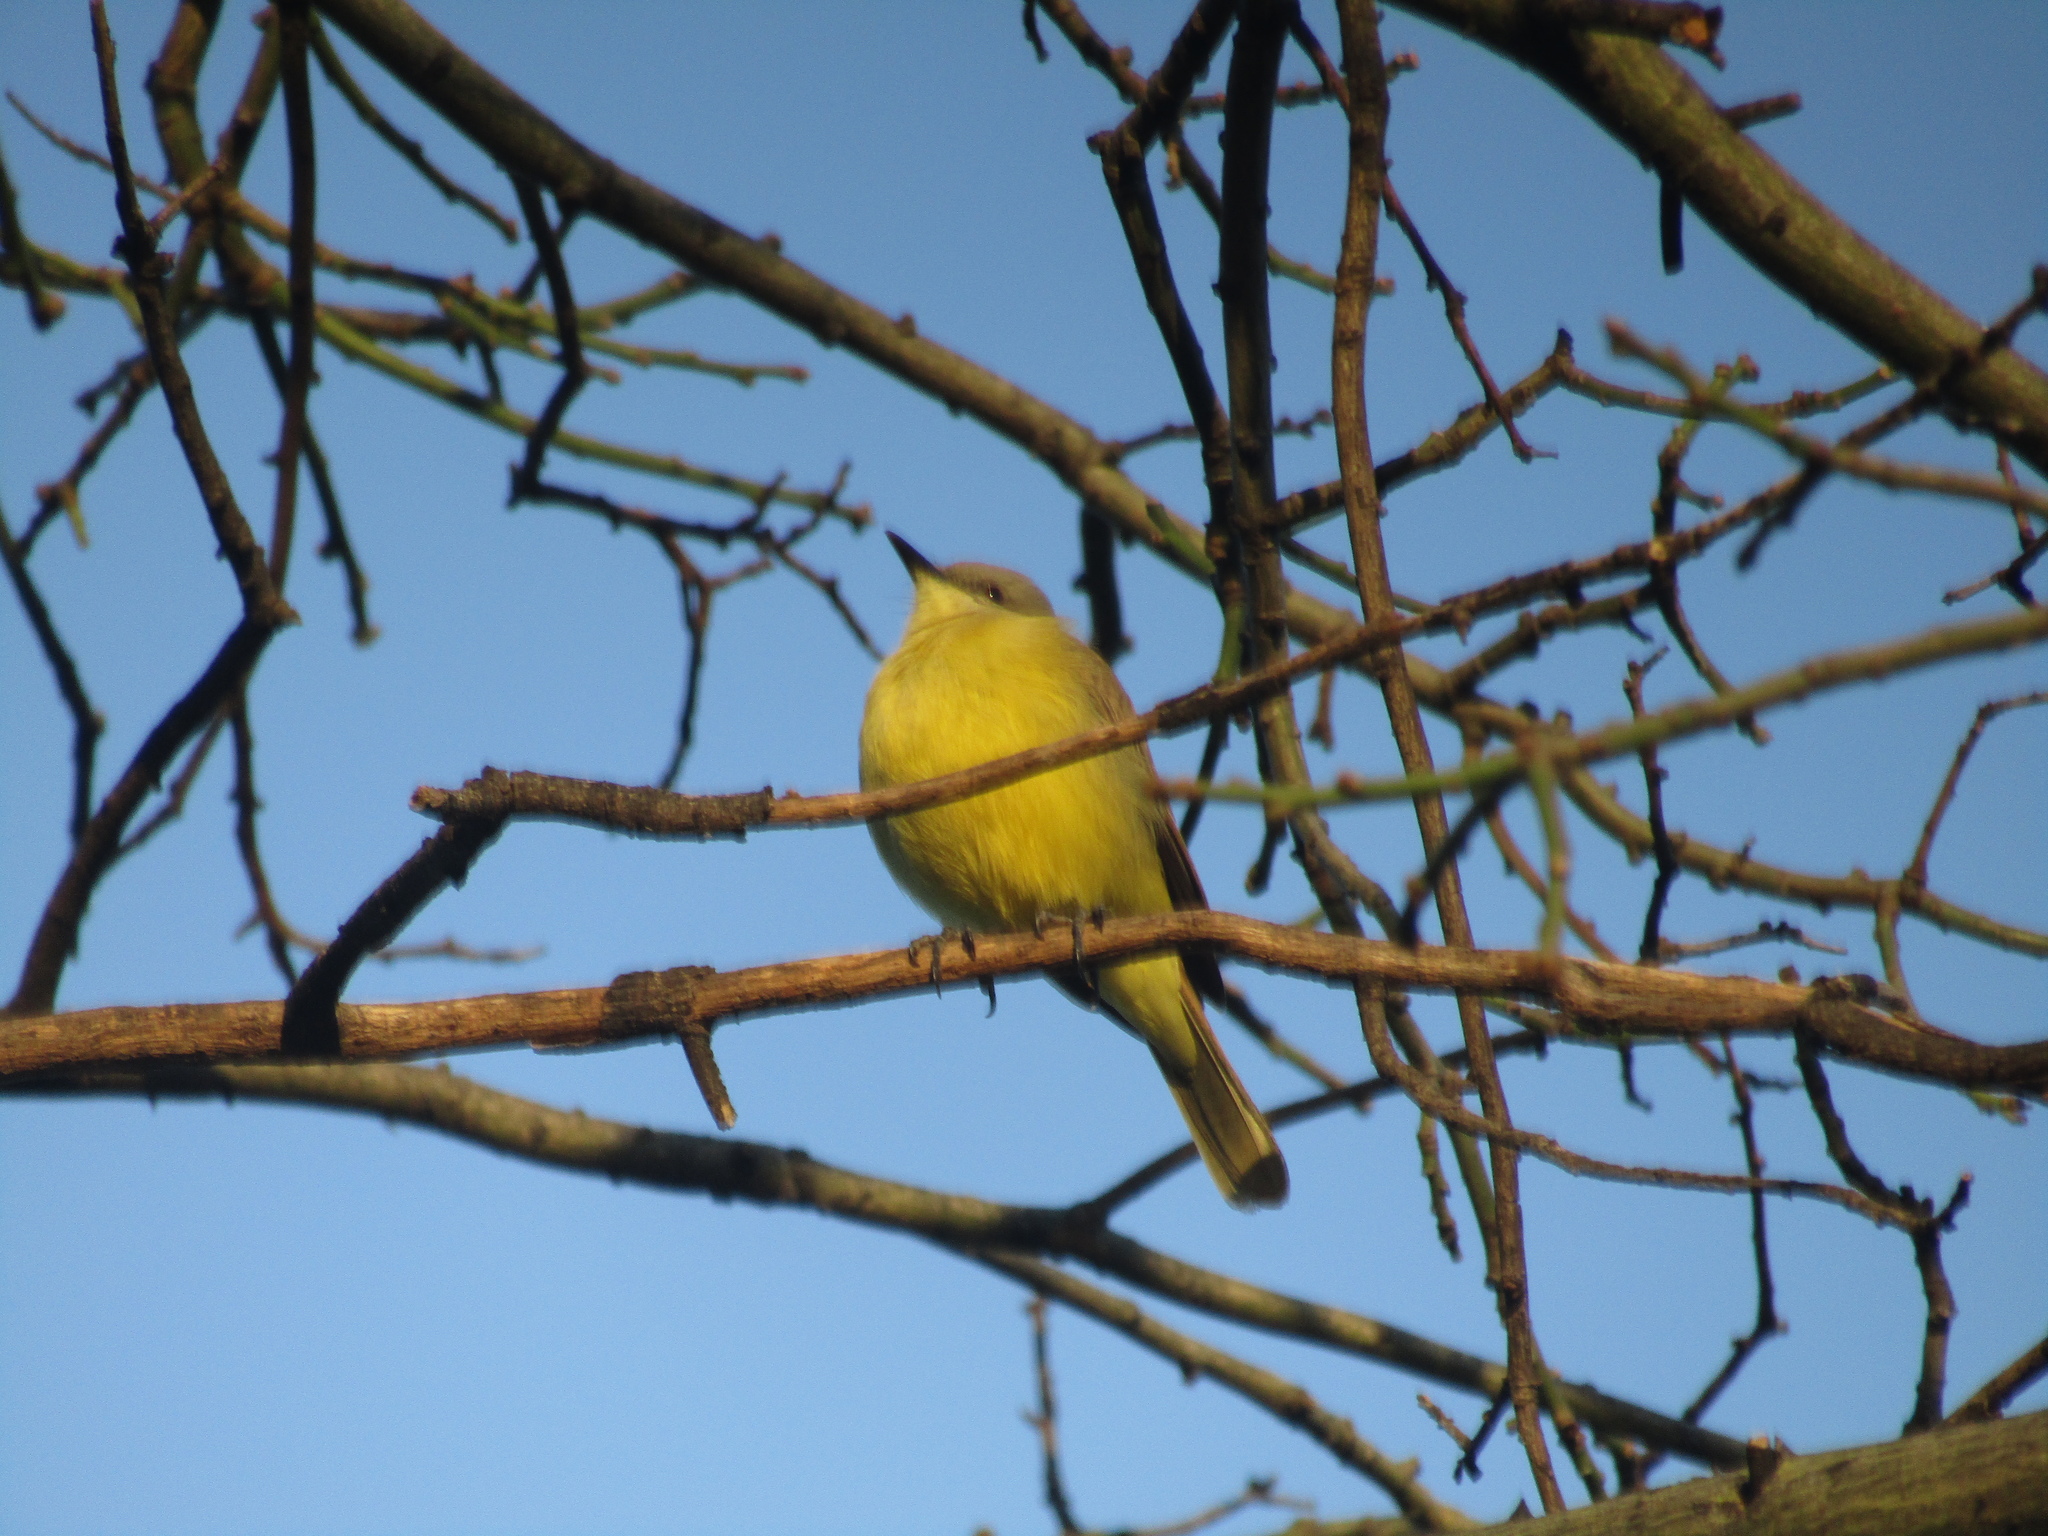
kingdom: Animalia
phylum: Chordata
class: Aves
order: Passeriformes
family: Tyrannidae
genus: Machetornis
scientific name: Machetornis rixosa
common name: Cattle tyrant
